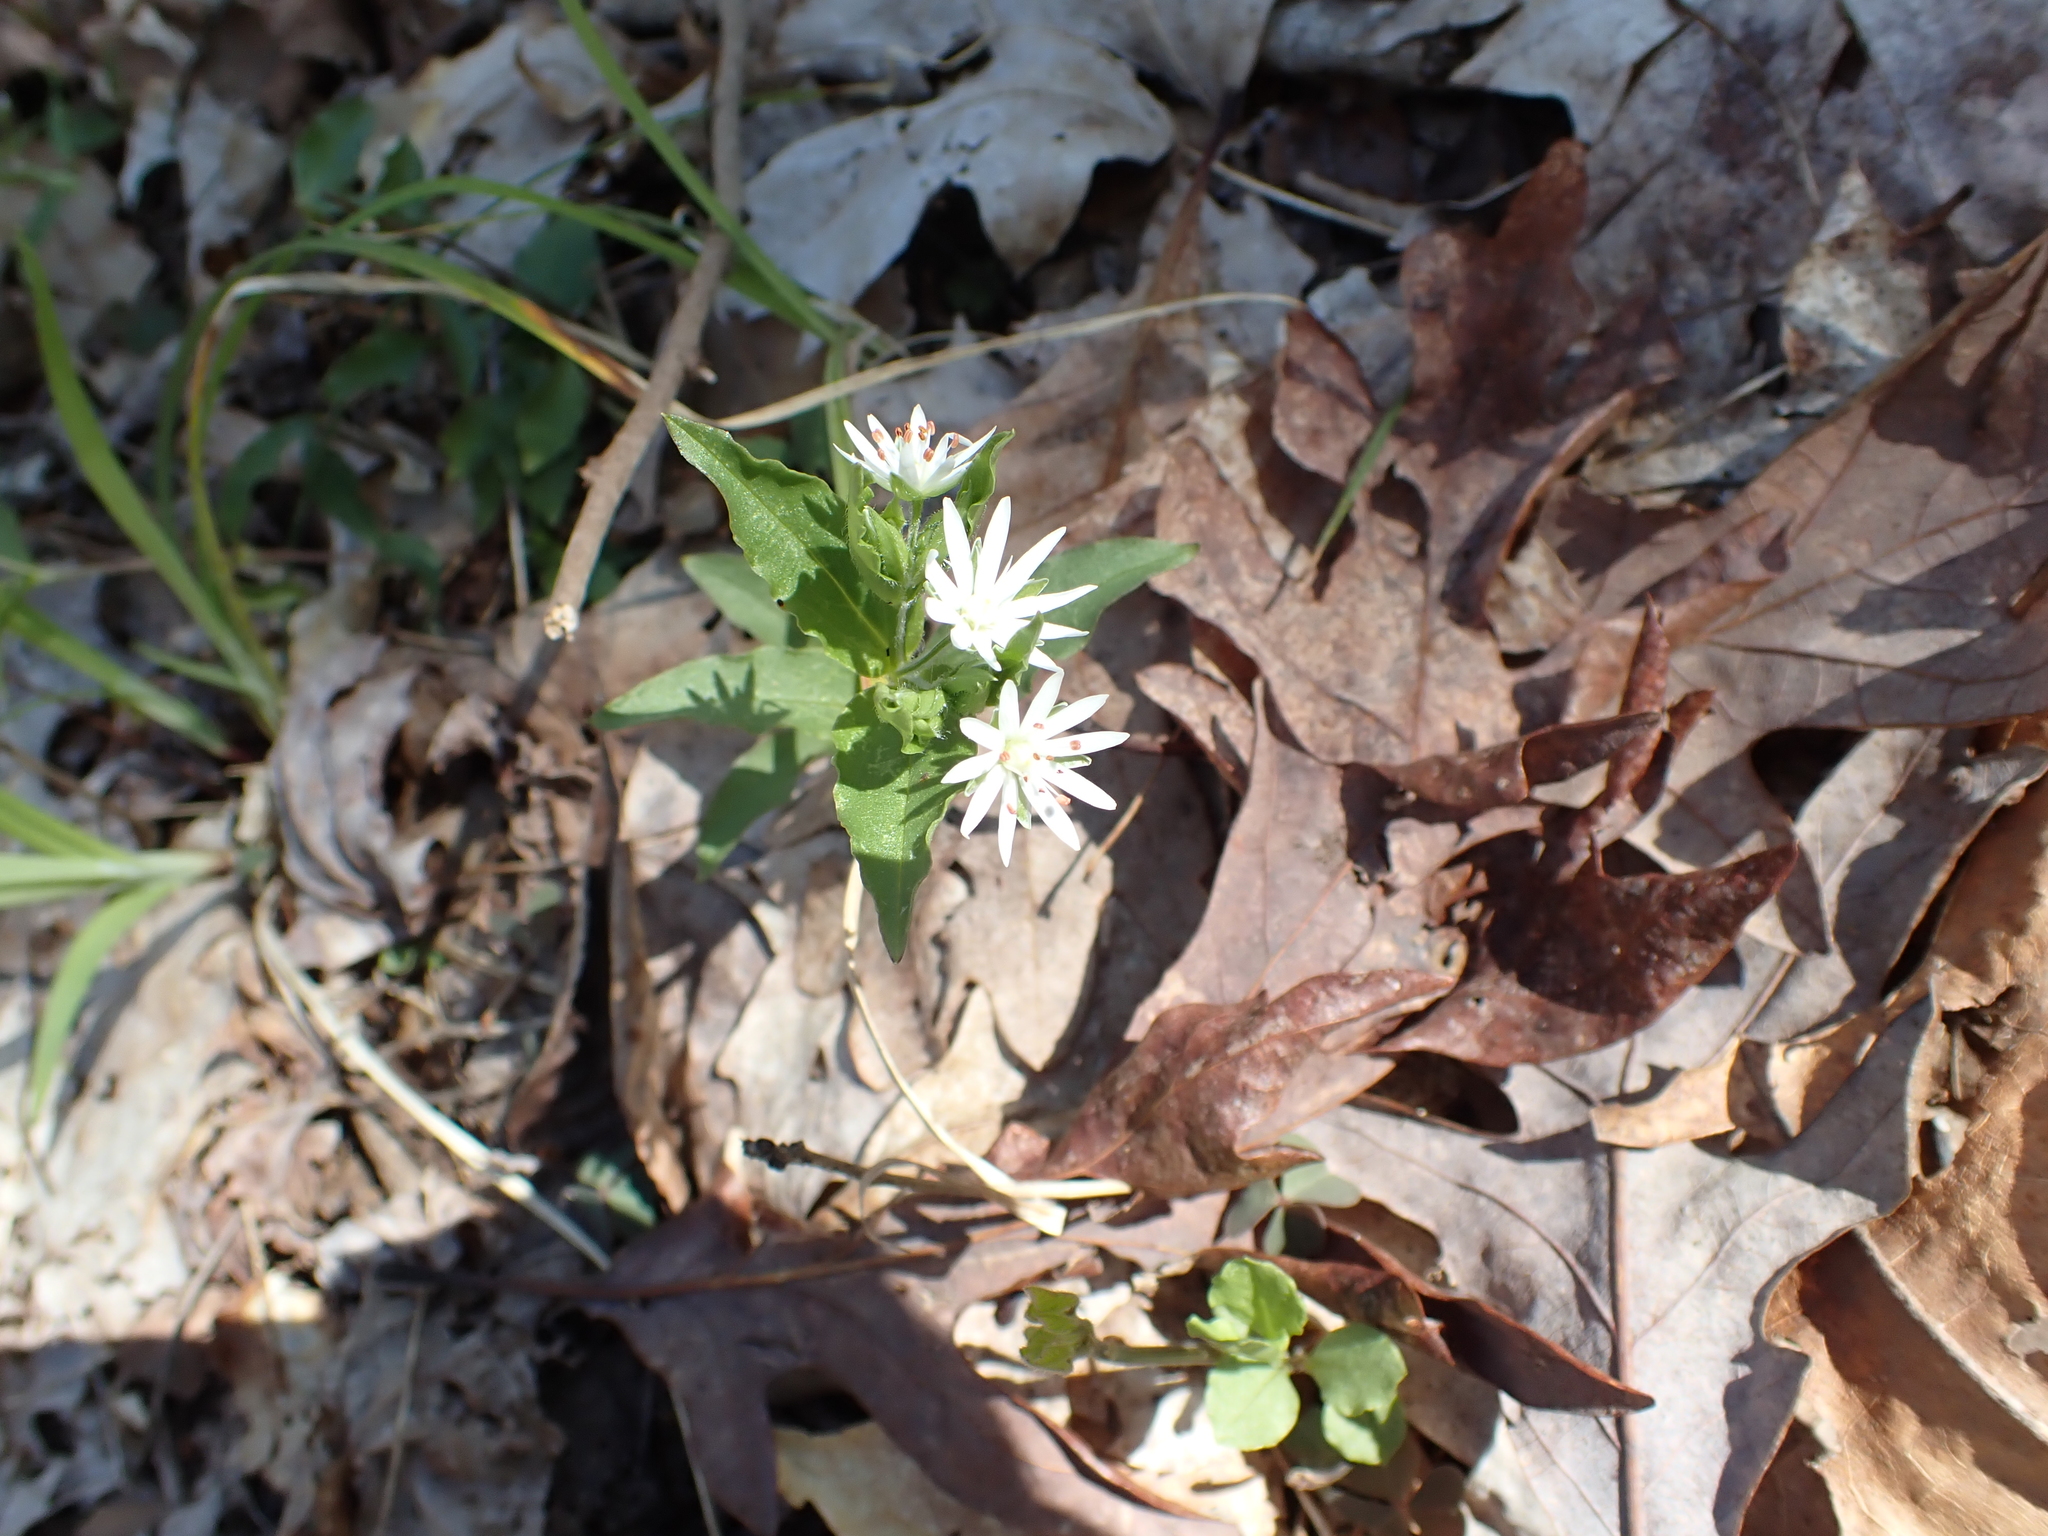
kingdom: Plantae
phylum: Tracheophyta
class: Magnoliopsida
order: Caryophyllales
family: Caryophyllaceae
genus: Stellaria
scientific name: Stellaria pubera
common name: Star chickweed
